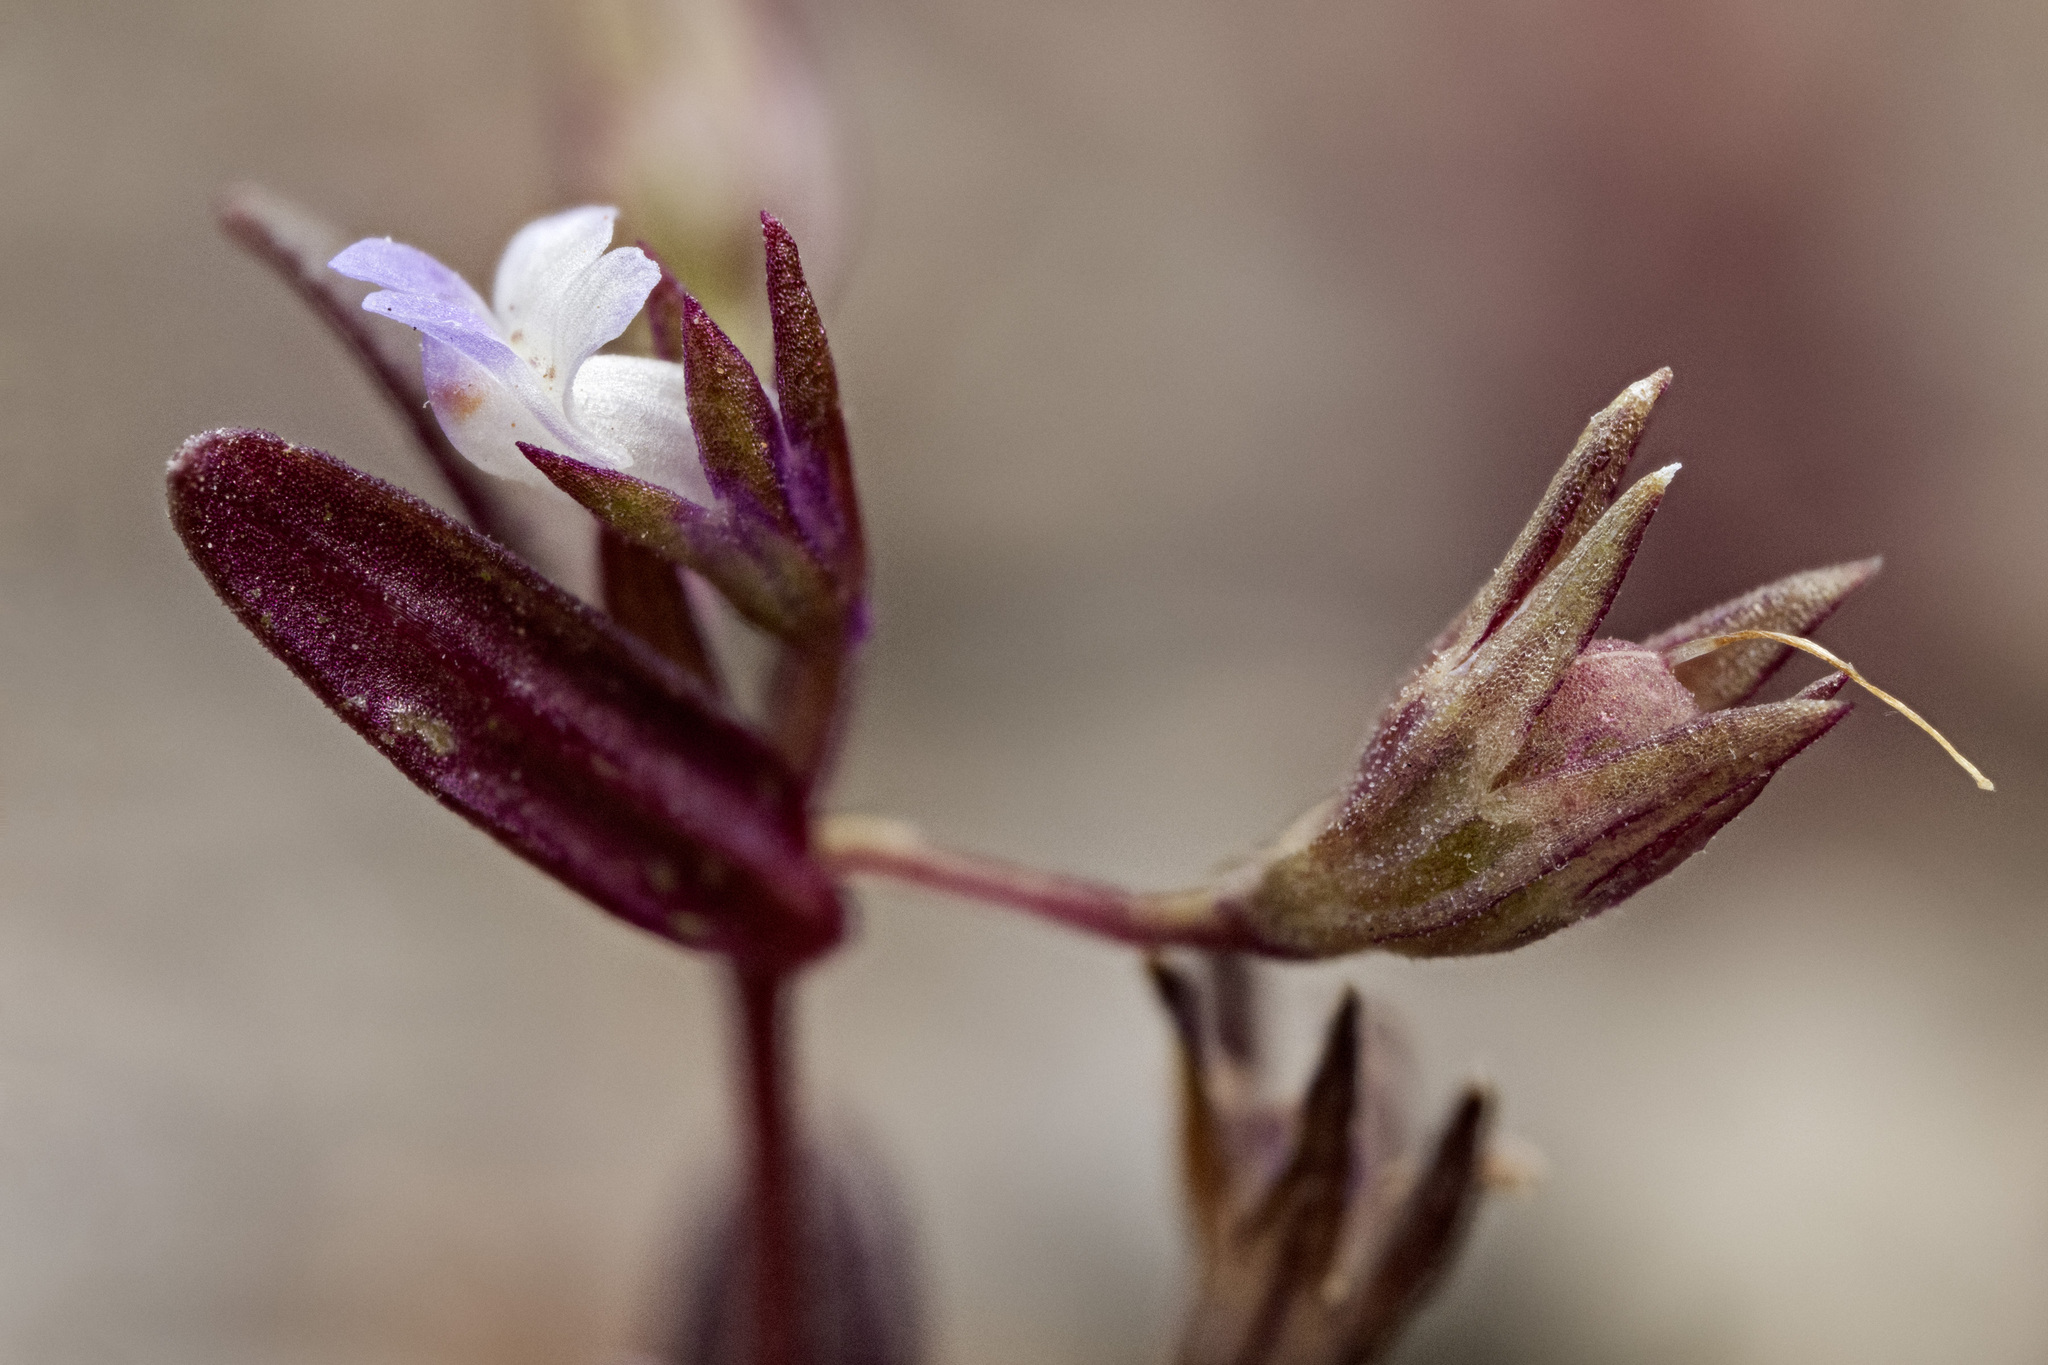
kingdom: Plantae
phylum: Tracheophyta
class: Magnoliopsida
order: Lamiales
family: Plantaginaceae
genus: Collinsia
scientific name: Collinsia parviflora
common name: Blue-lips
